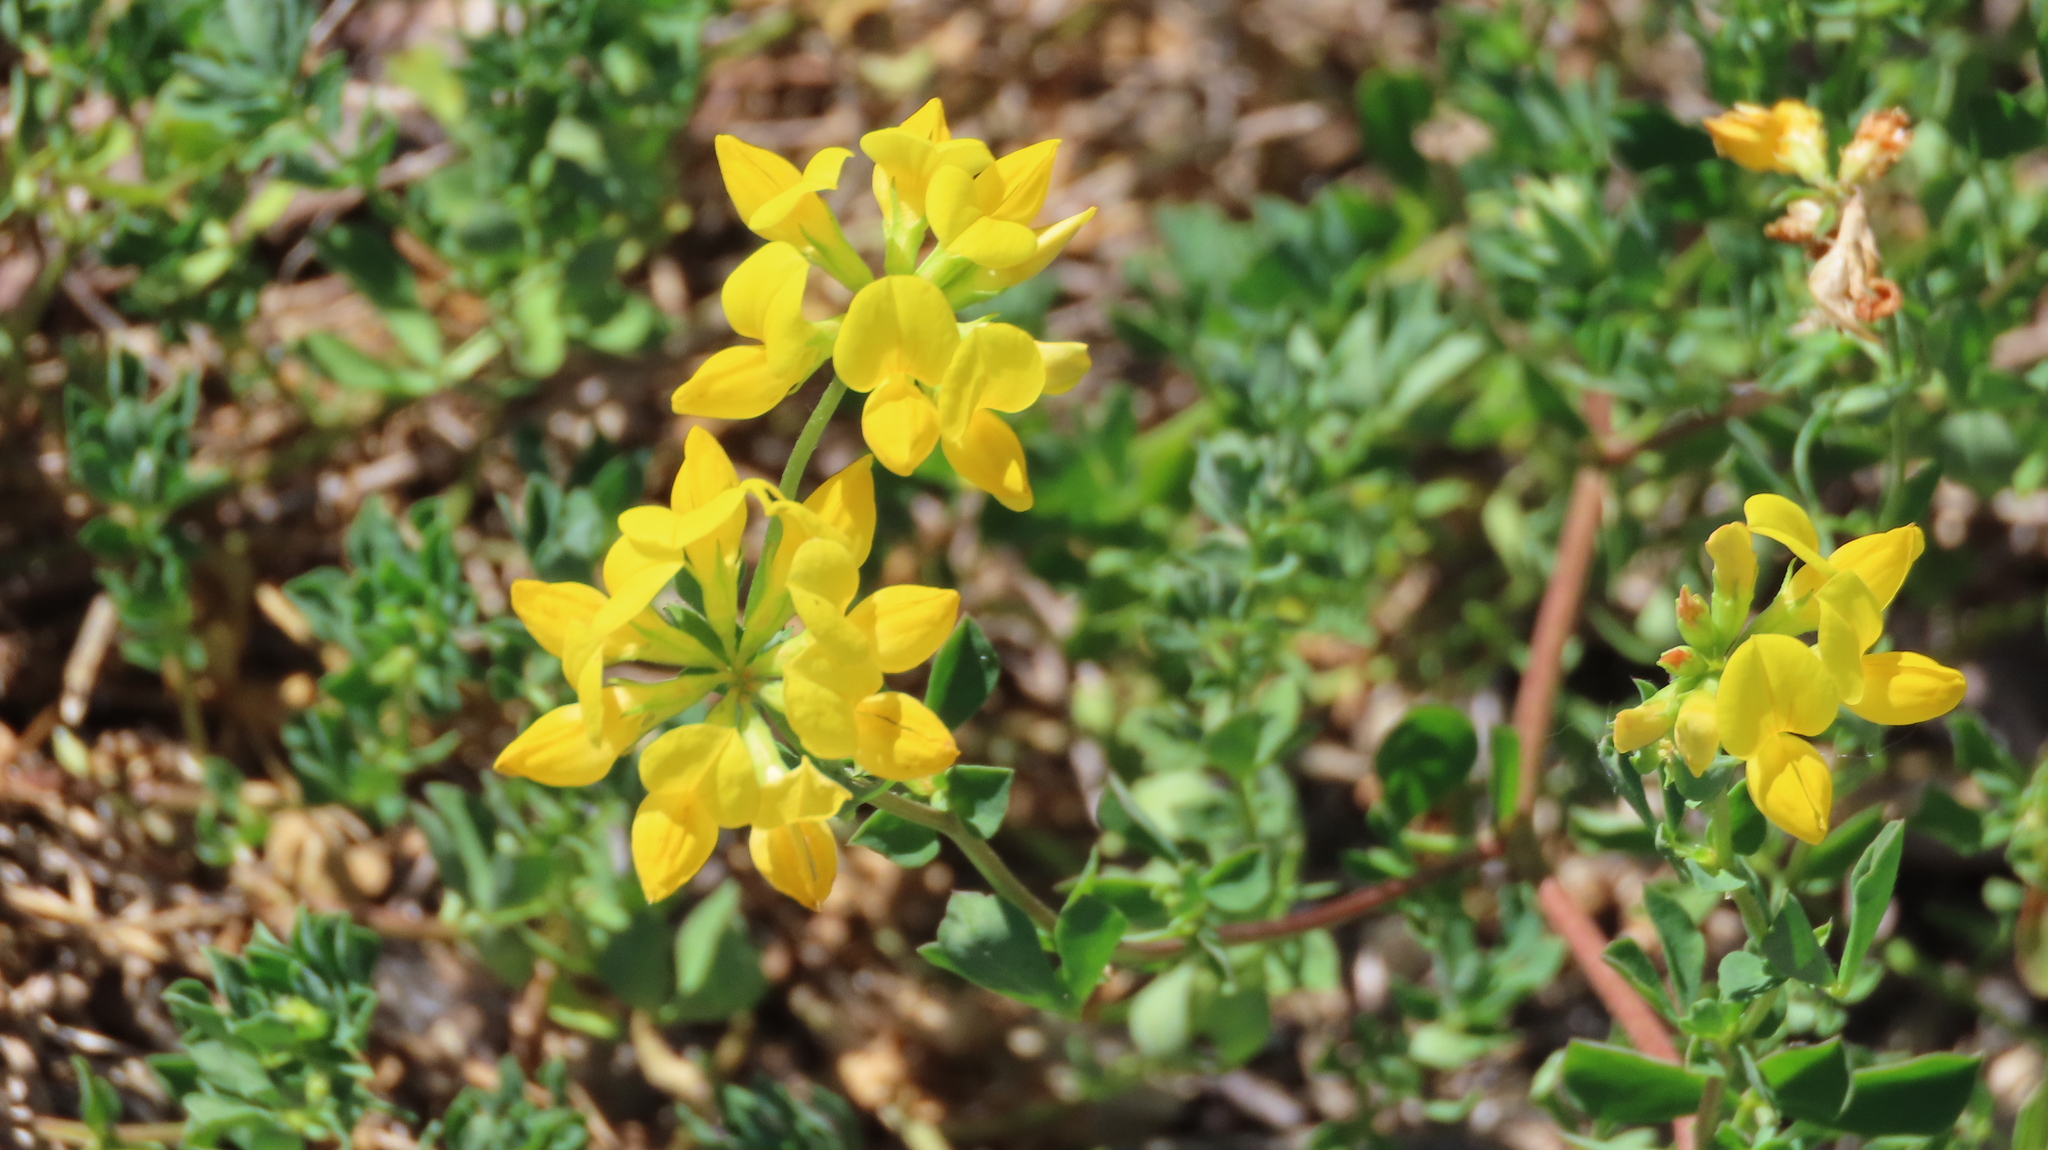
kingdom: Plantae
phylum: Tracheophyta
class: Magnoliopsida
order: Fabales
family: Fabaceae
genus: Lotus
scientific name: Lotus corniculatus
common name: Common bird's-foot-trefoil
